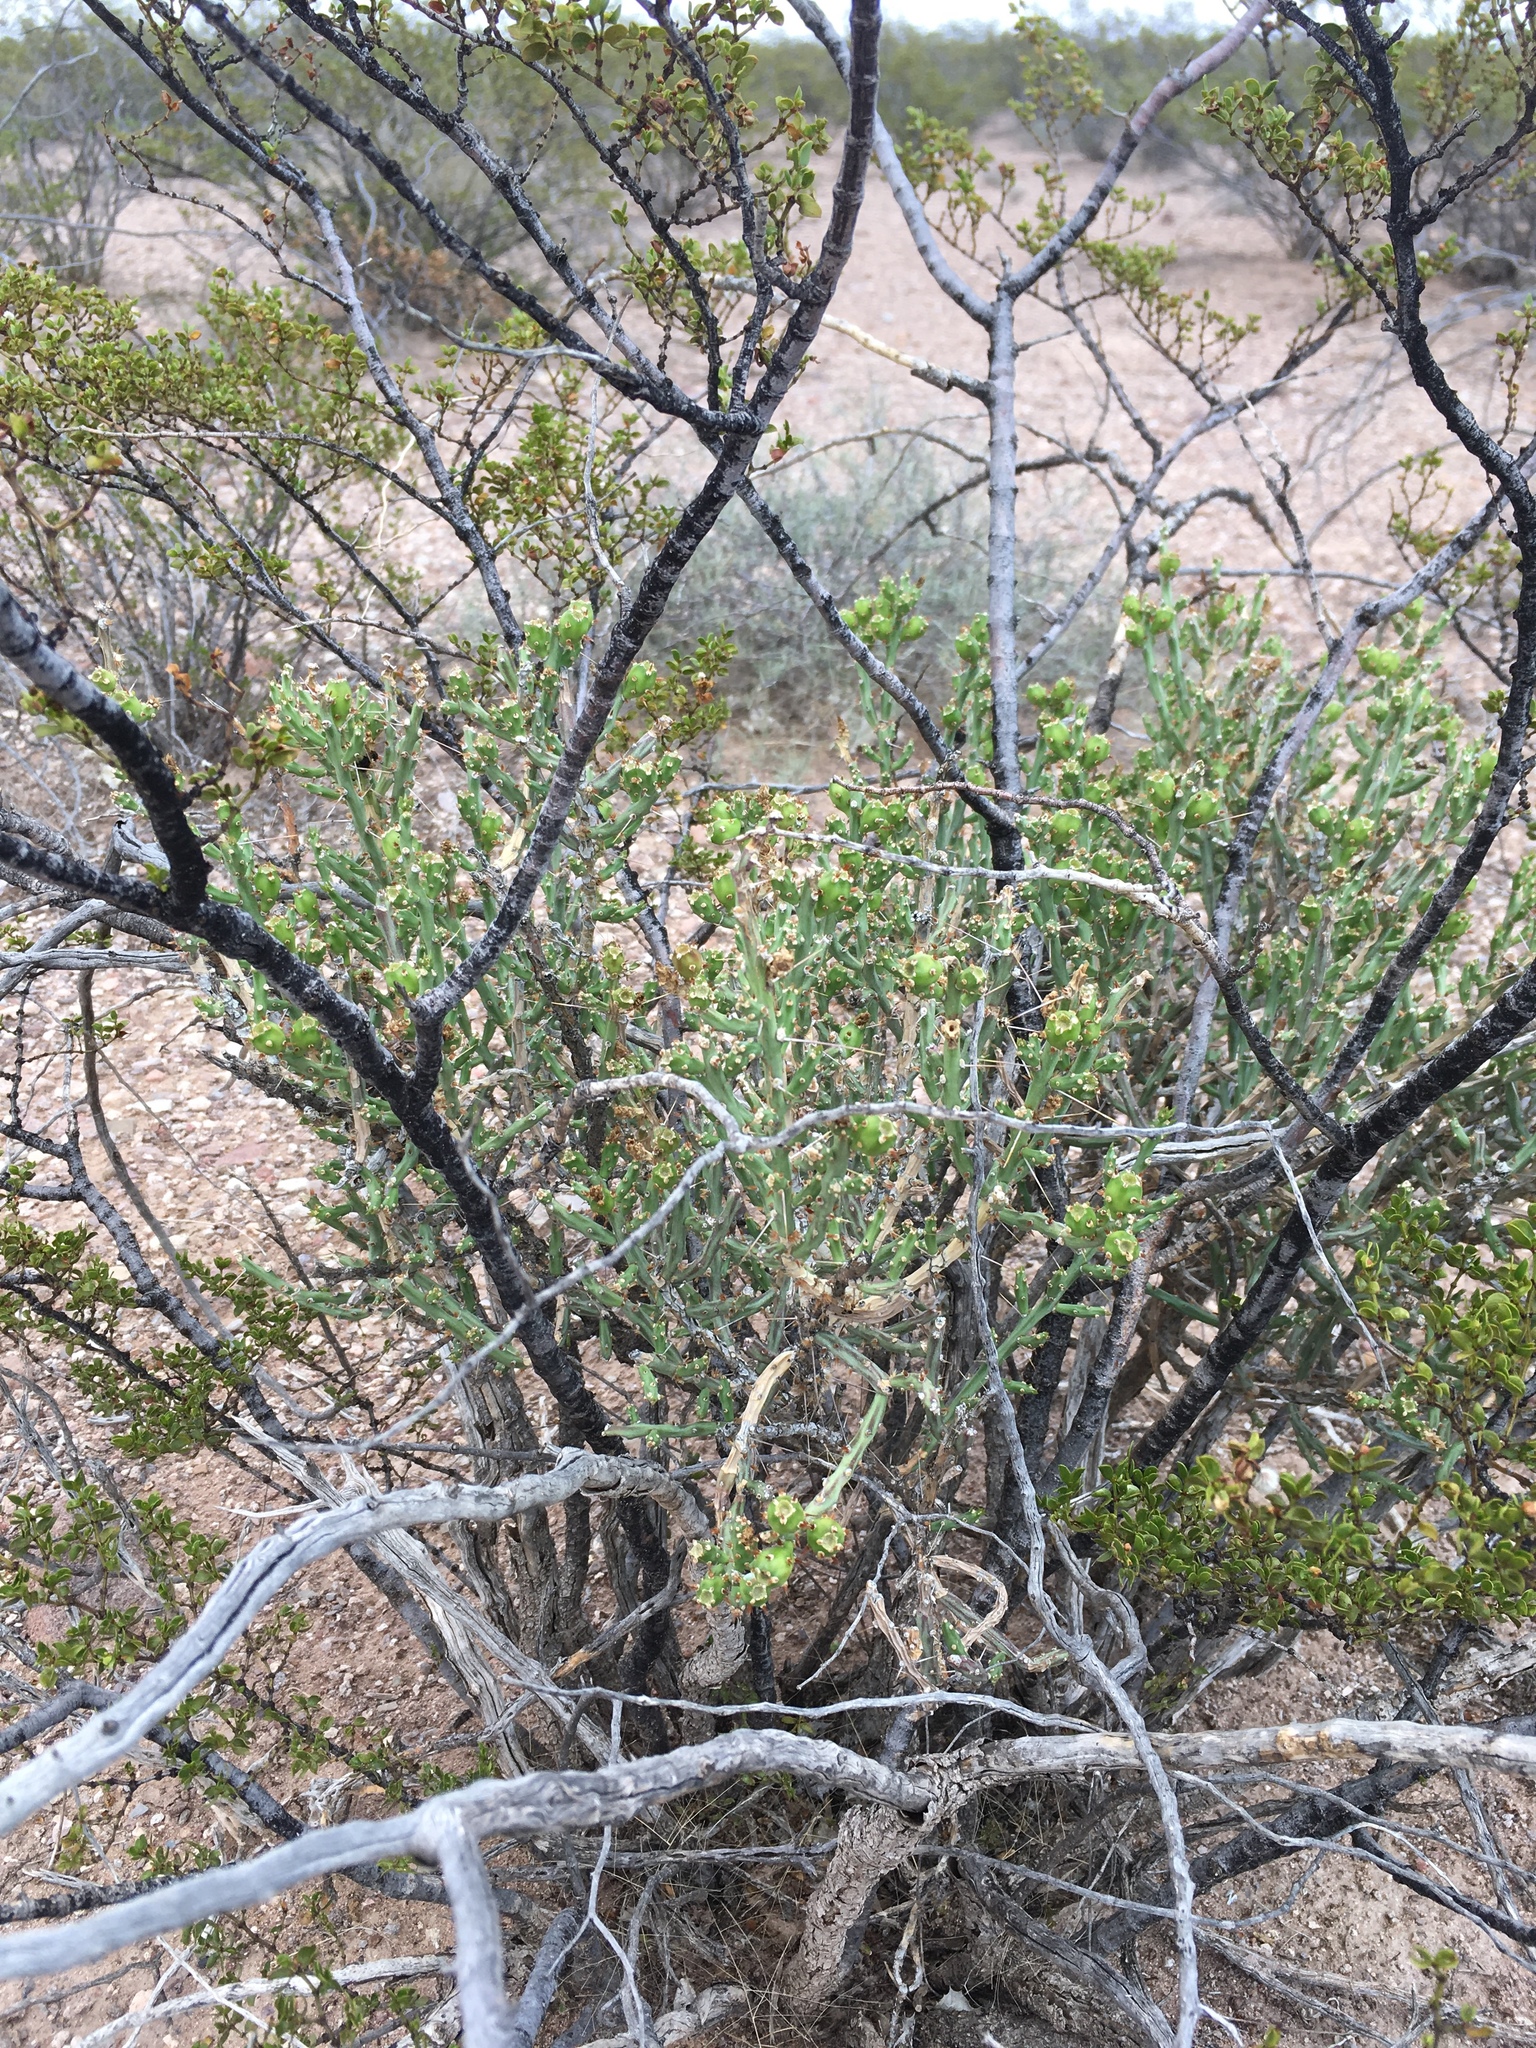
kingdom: Plantae
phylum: Tracheophyta
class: Magnoliopsida
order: Caryophyllales
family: Cactaceae
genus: Cylindropuntia
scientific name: Cylindropuntia leptocaulis
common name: Christmas cactus
